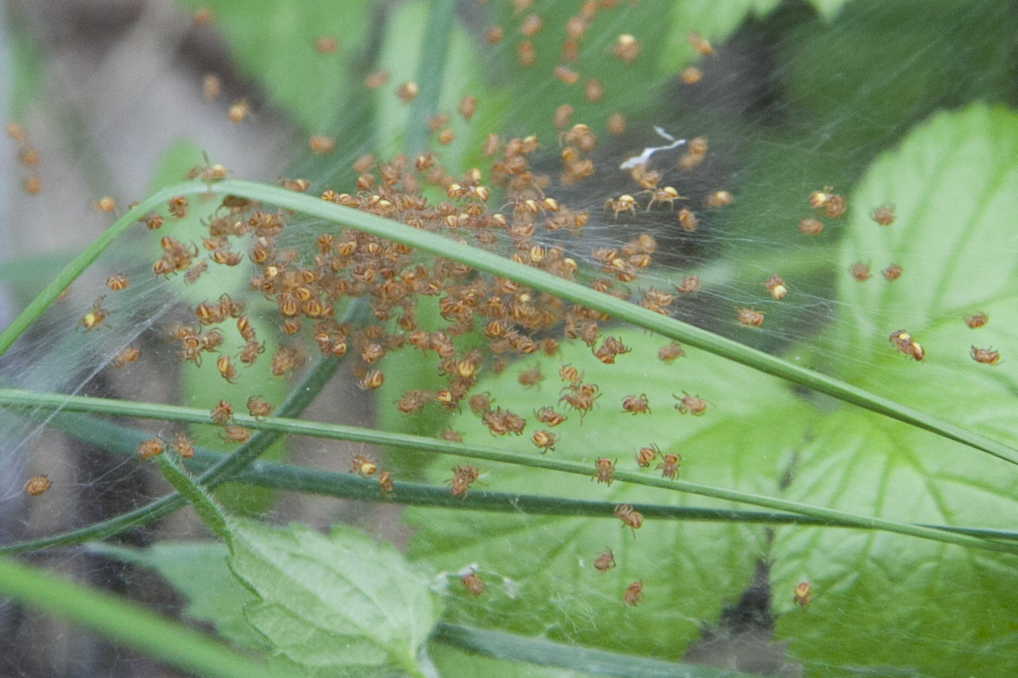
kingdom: Animalia
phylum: Arthropoda
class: Arachnida
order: Araneae
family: Araneidae
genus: Araneus
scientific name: Araneus
